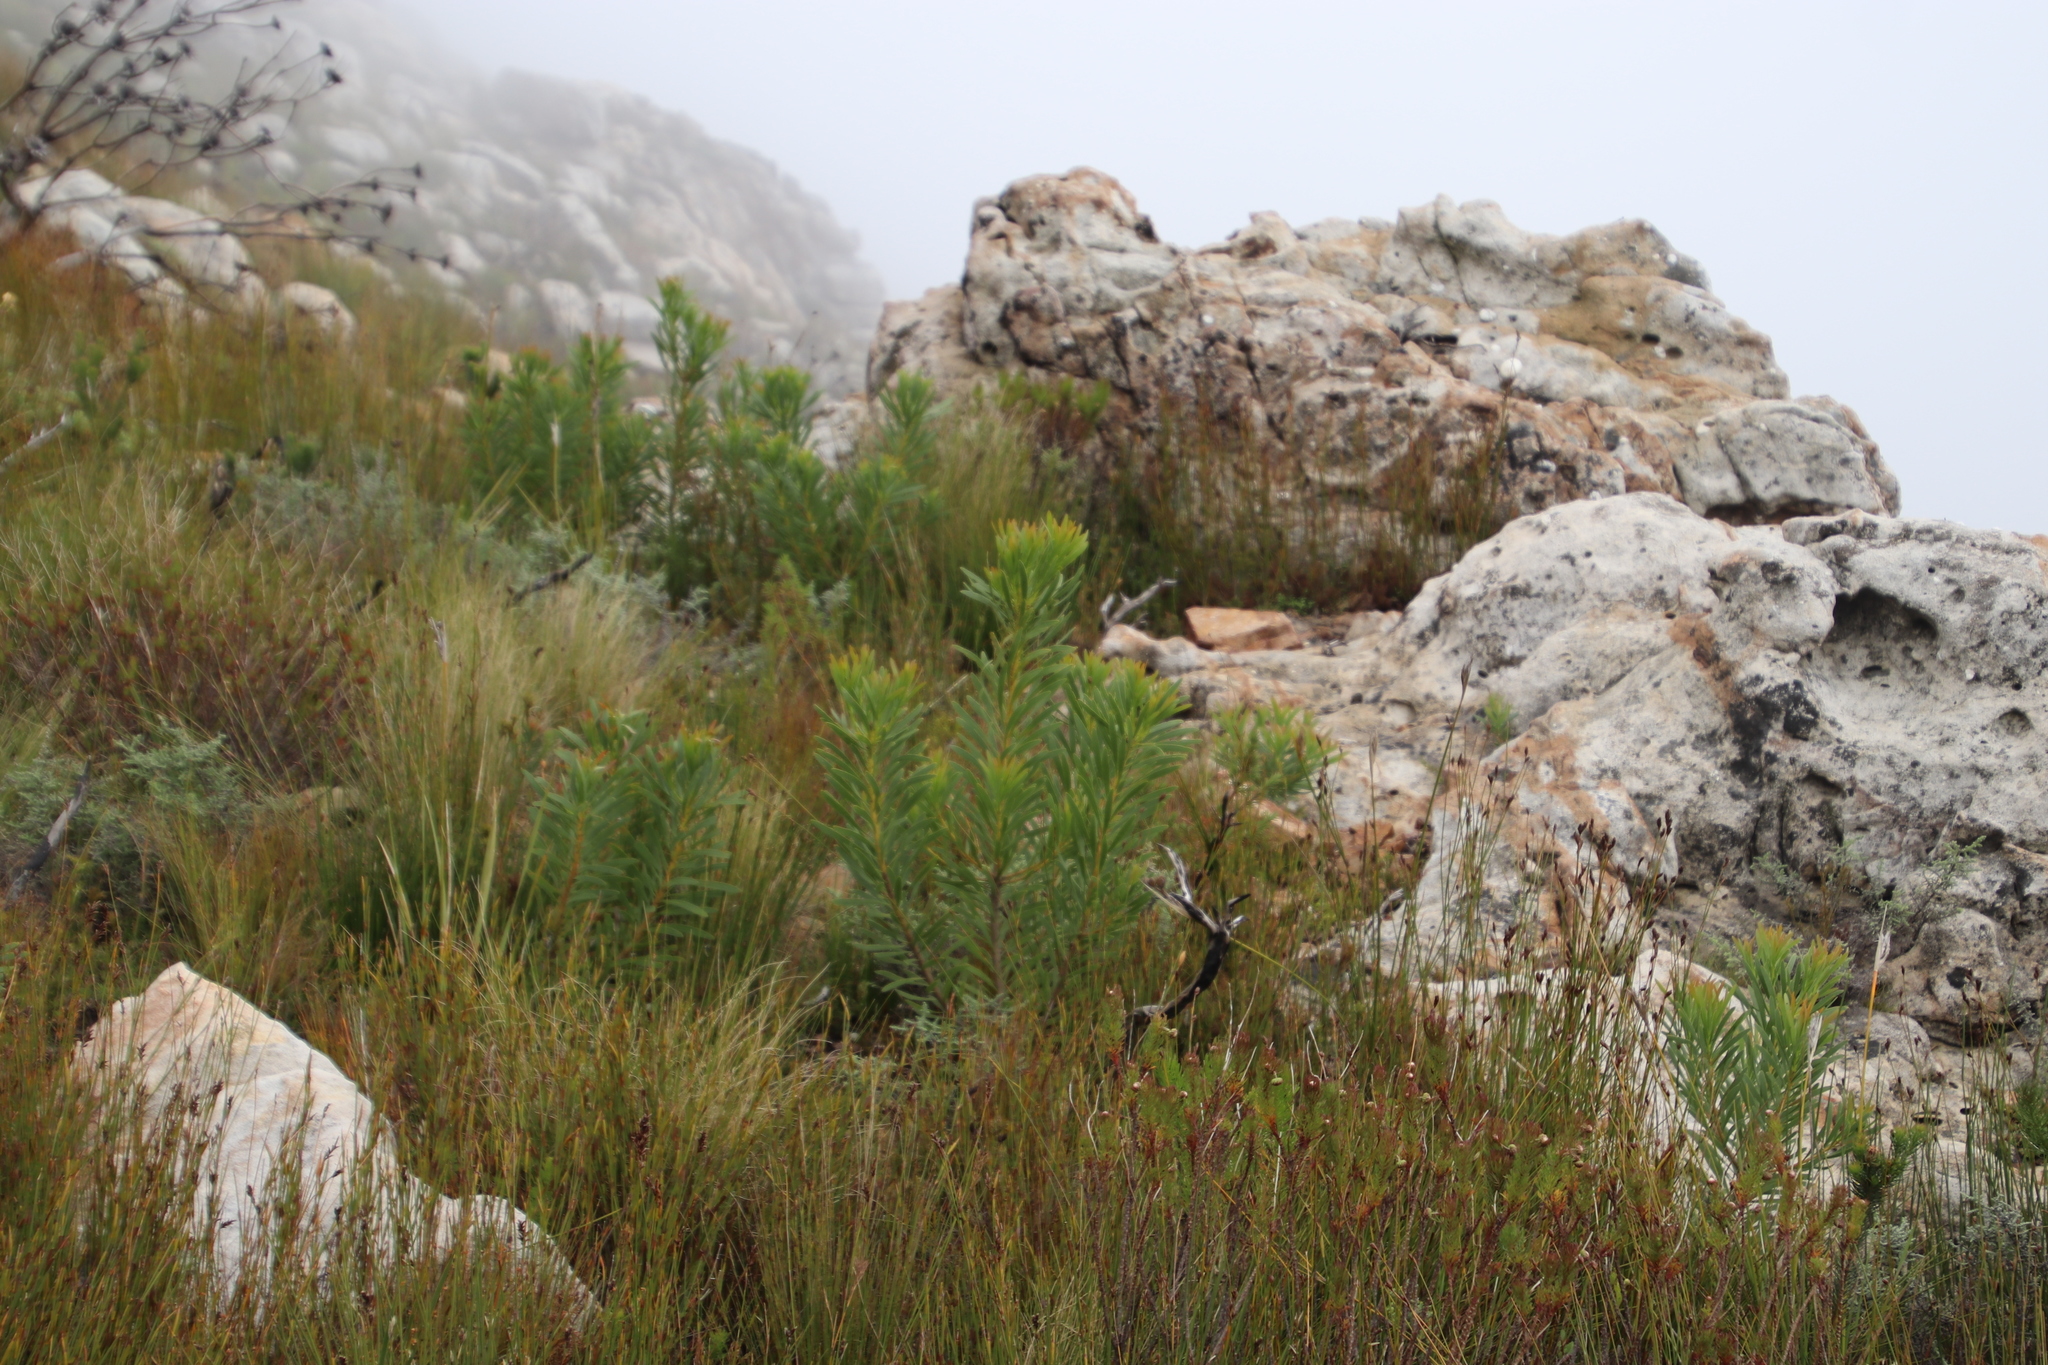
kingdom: Plantae
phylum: Tracheophyta
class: Magnoliopsida
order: Proteales
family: Proteaceae
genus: Protea
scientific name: Protea repens
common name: Sugarbush
